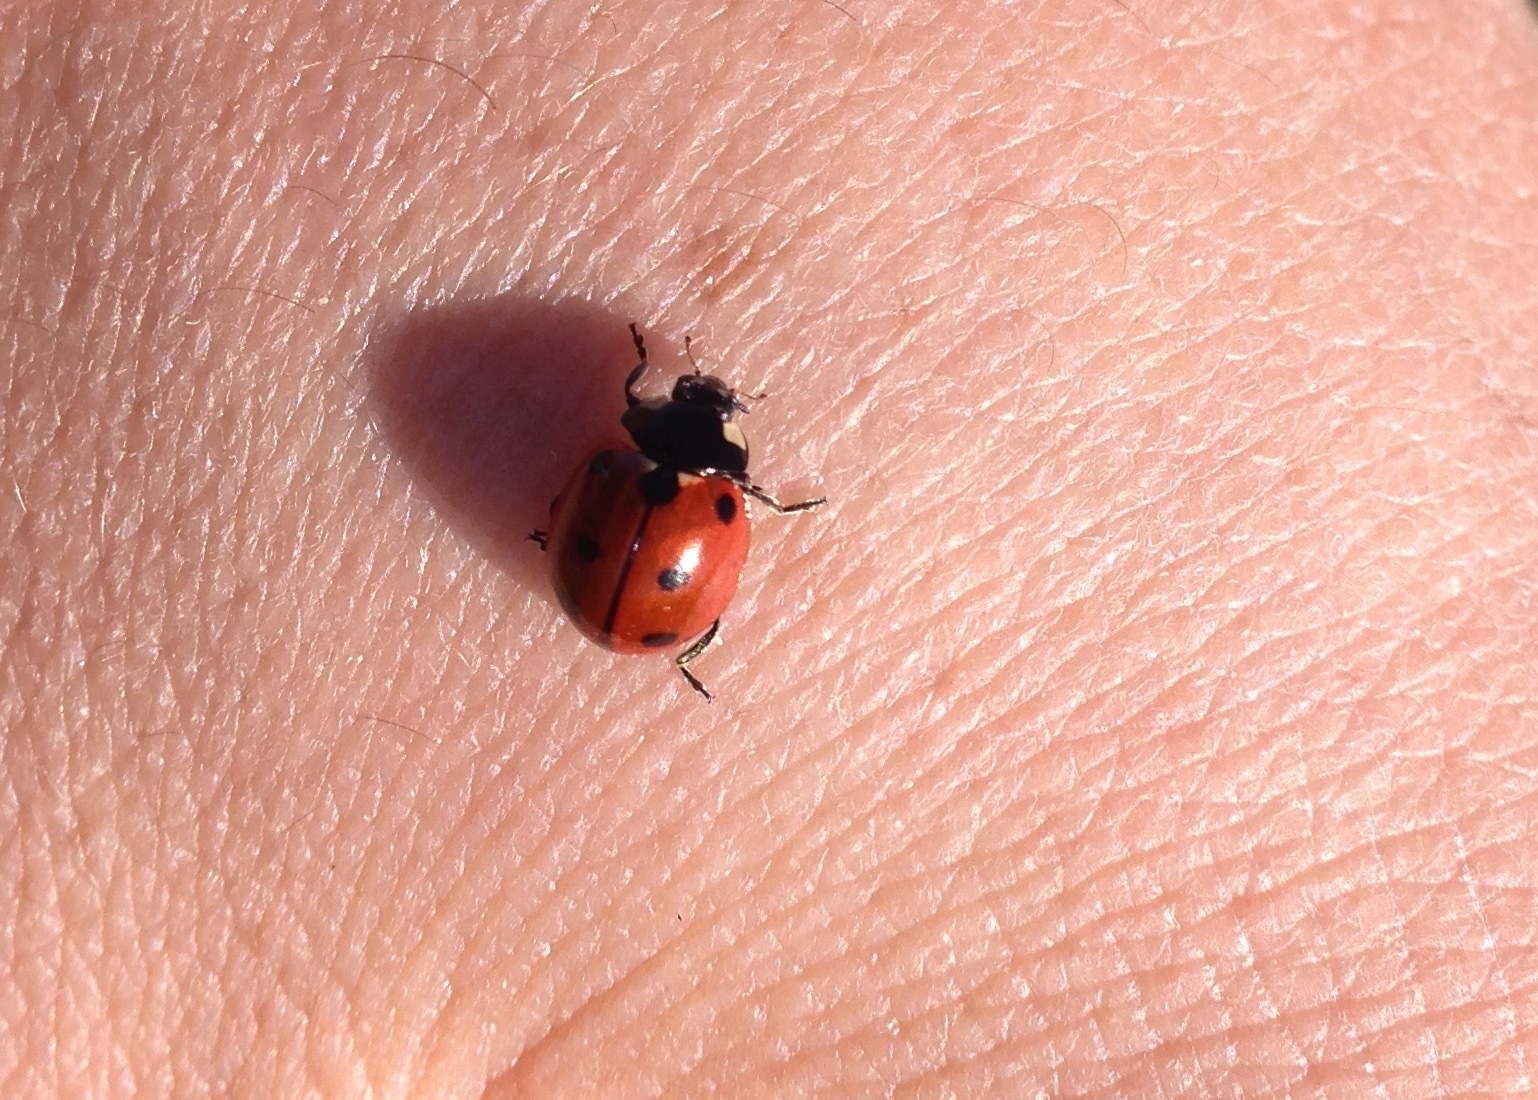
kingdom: Animalia
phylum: Arthropoda
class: Insecta
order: Coleoptera
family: Coccinellidae
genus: Coccinella
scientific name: Coccinella californica
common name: Lady beetle
